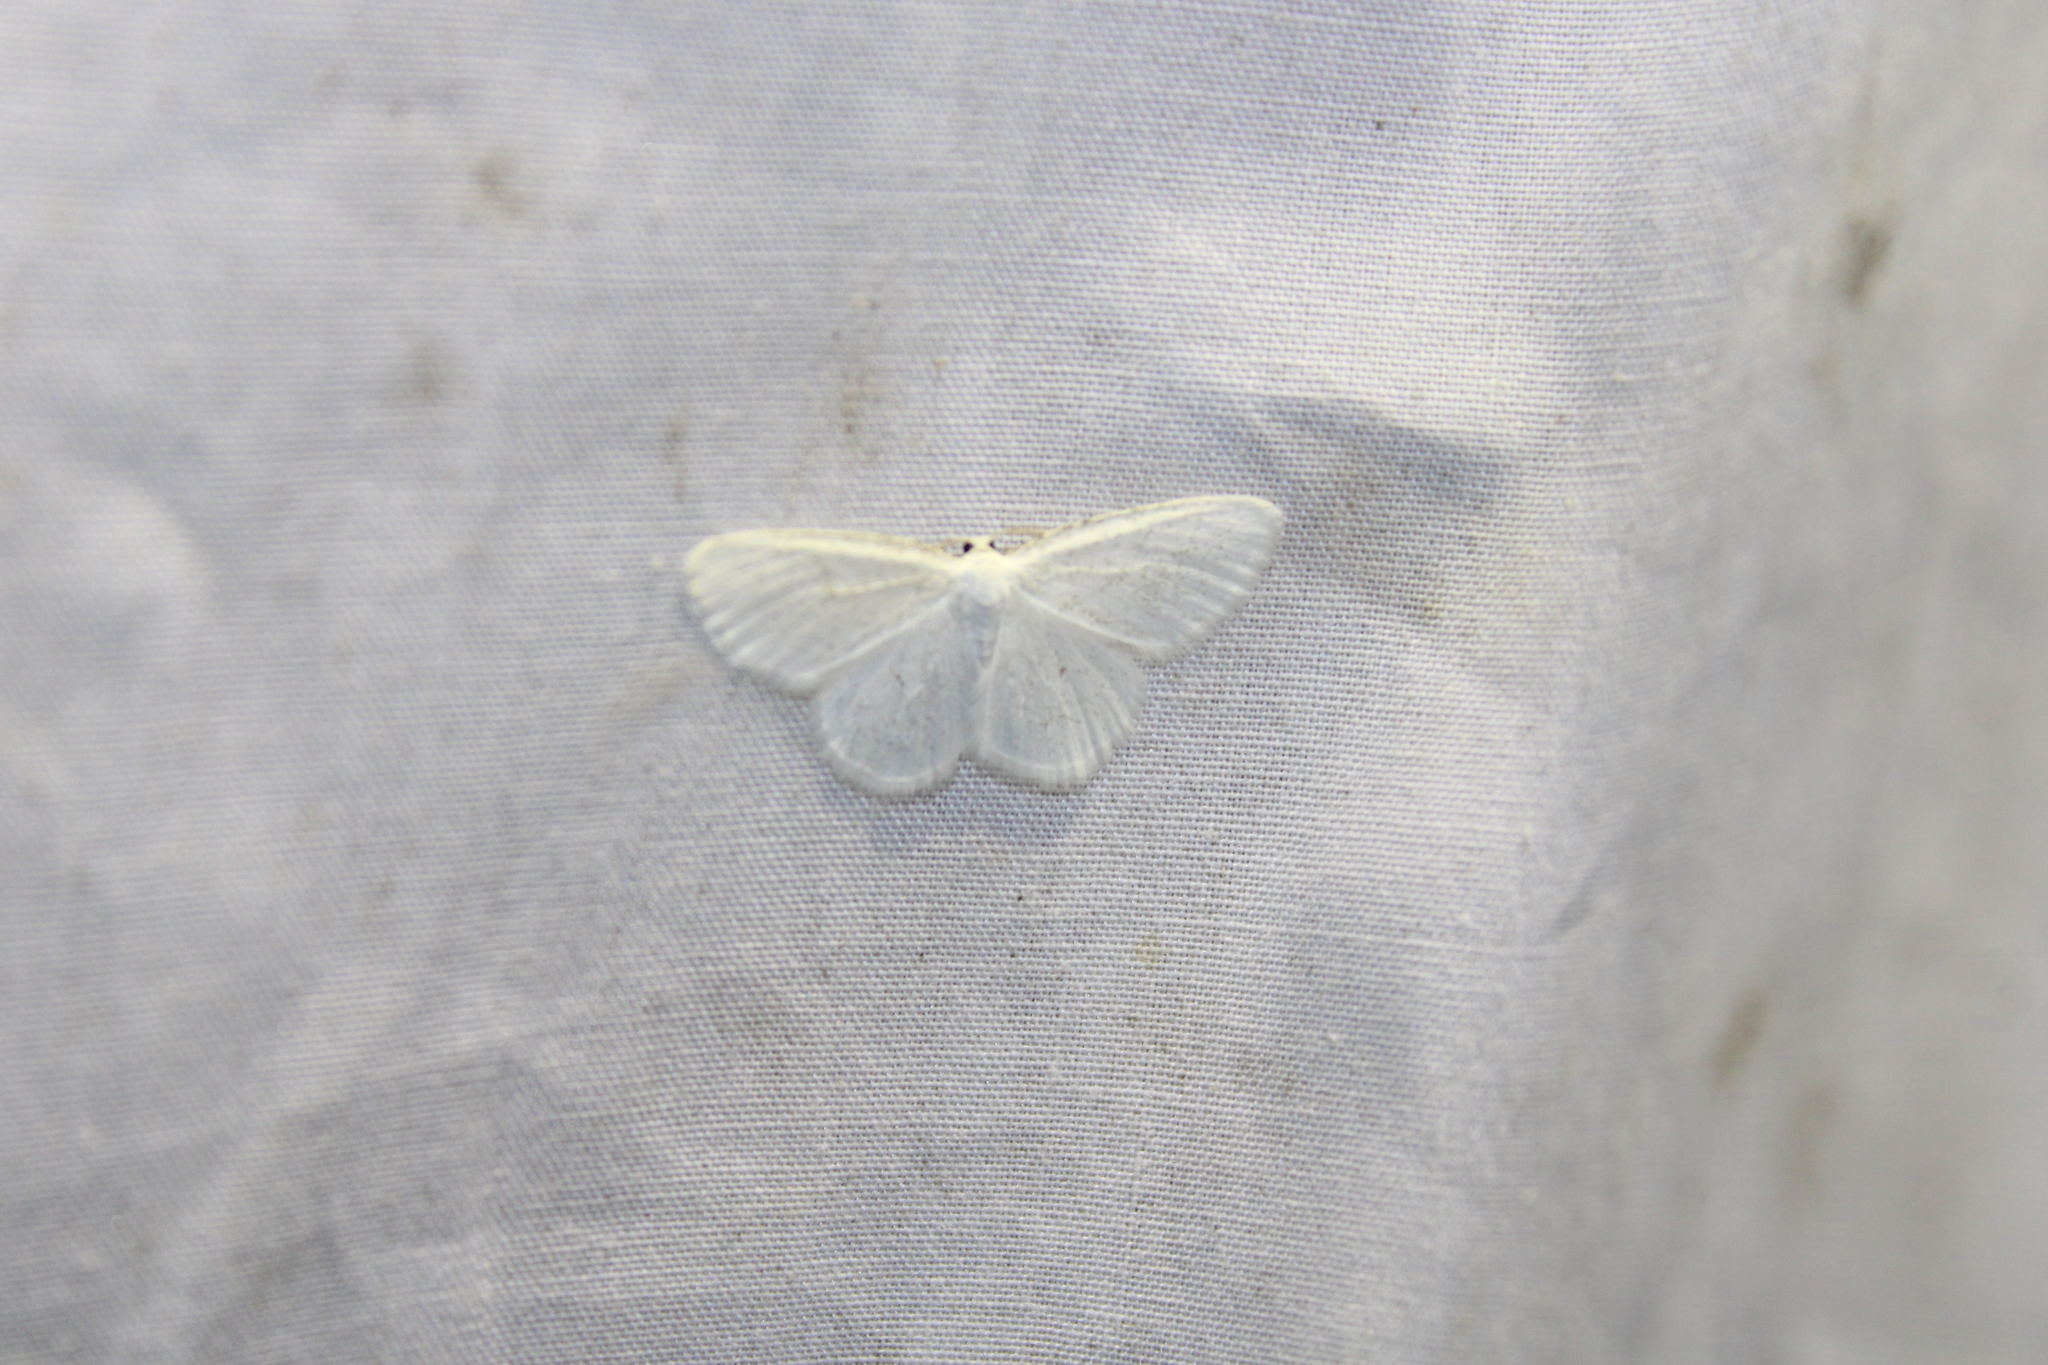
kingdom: Animalia
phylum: Arthropoda
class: Insecta
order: Lepidoptera
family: Geometridae
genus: Protitame
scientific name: Protitame virginalis
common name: Virgin moth
